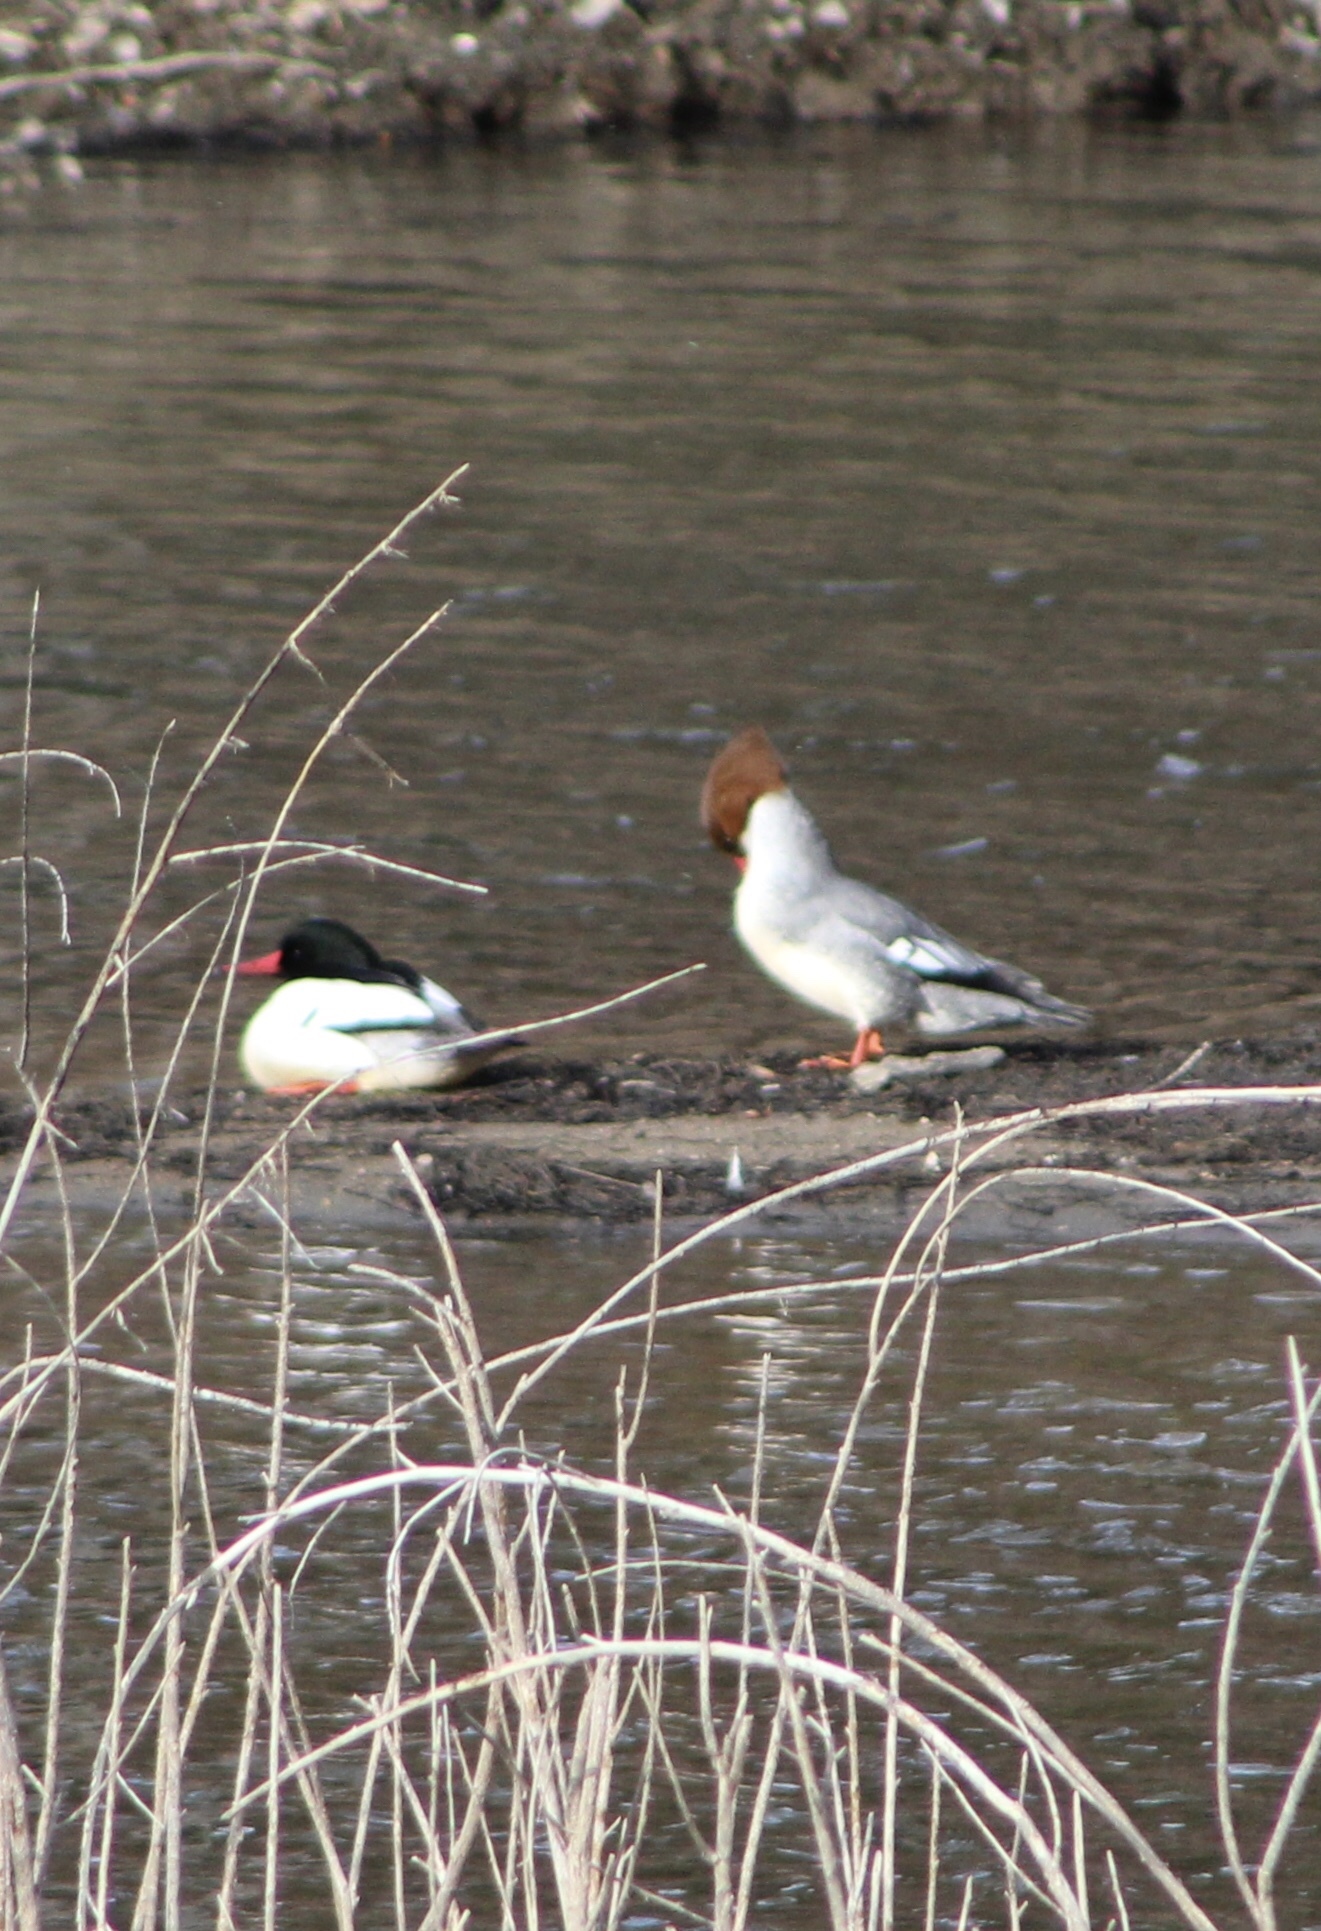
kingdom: Animalia
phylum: Chordata
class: Aves
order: Anseriformes
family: Anatidae
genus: Mergus
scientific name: Mergus merganser
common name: Common merganser
